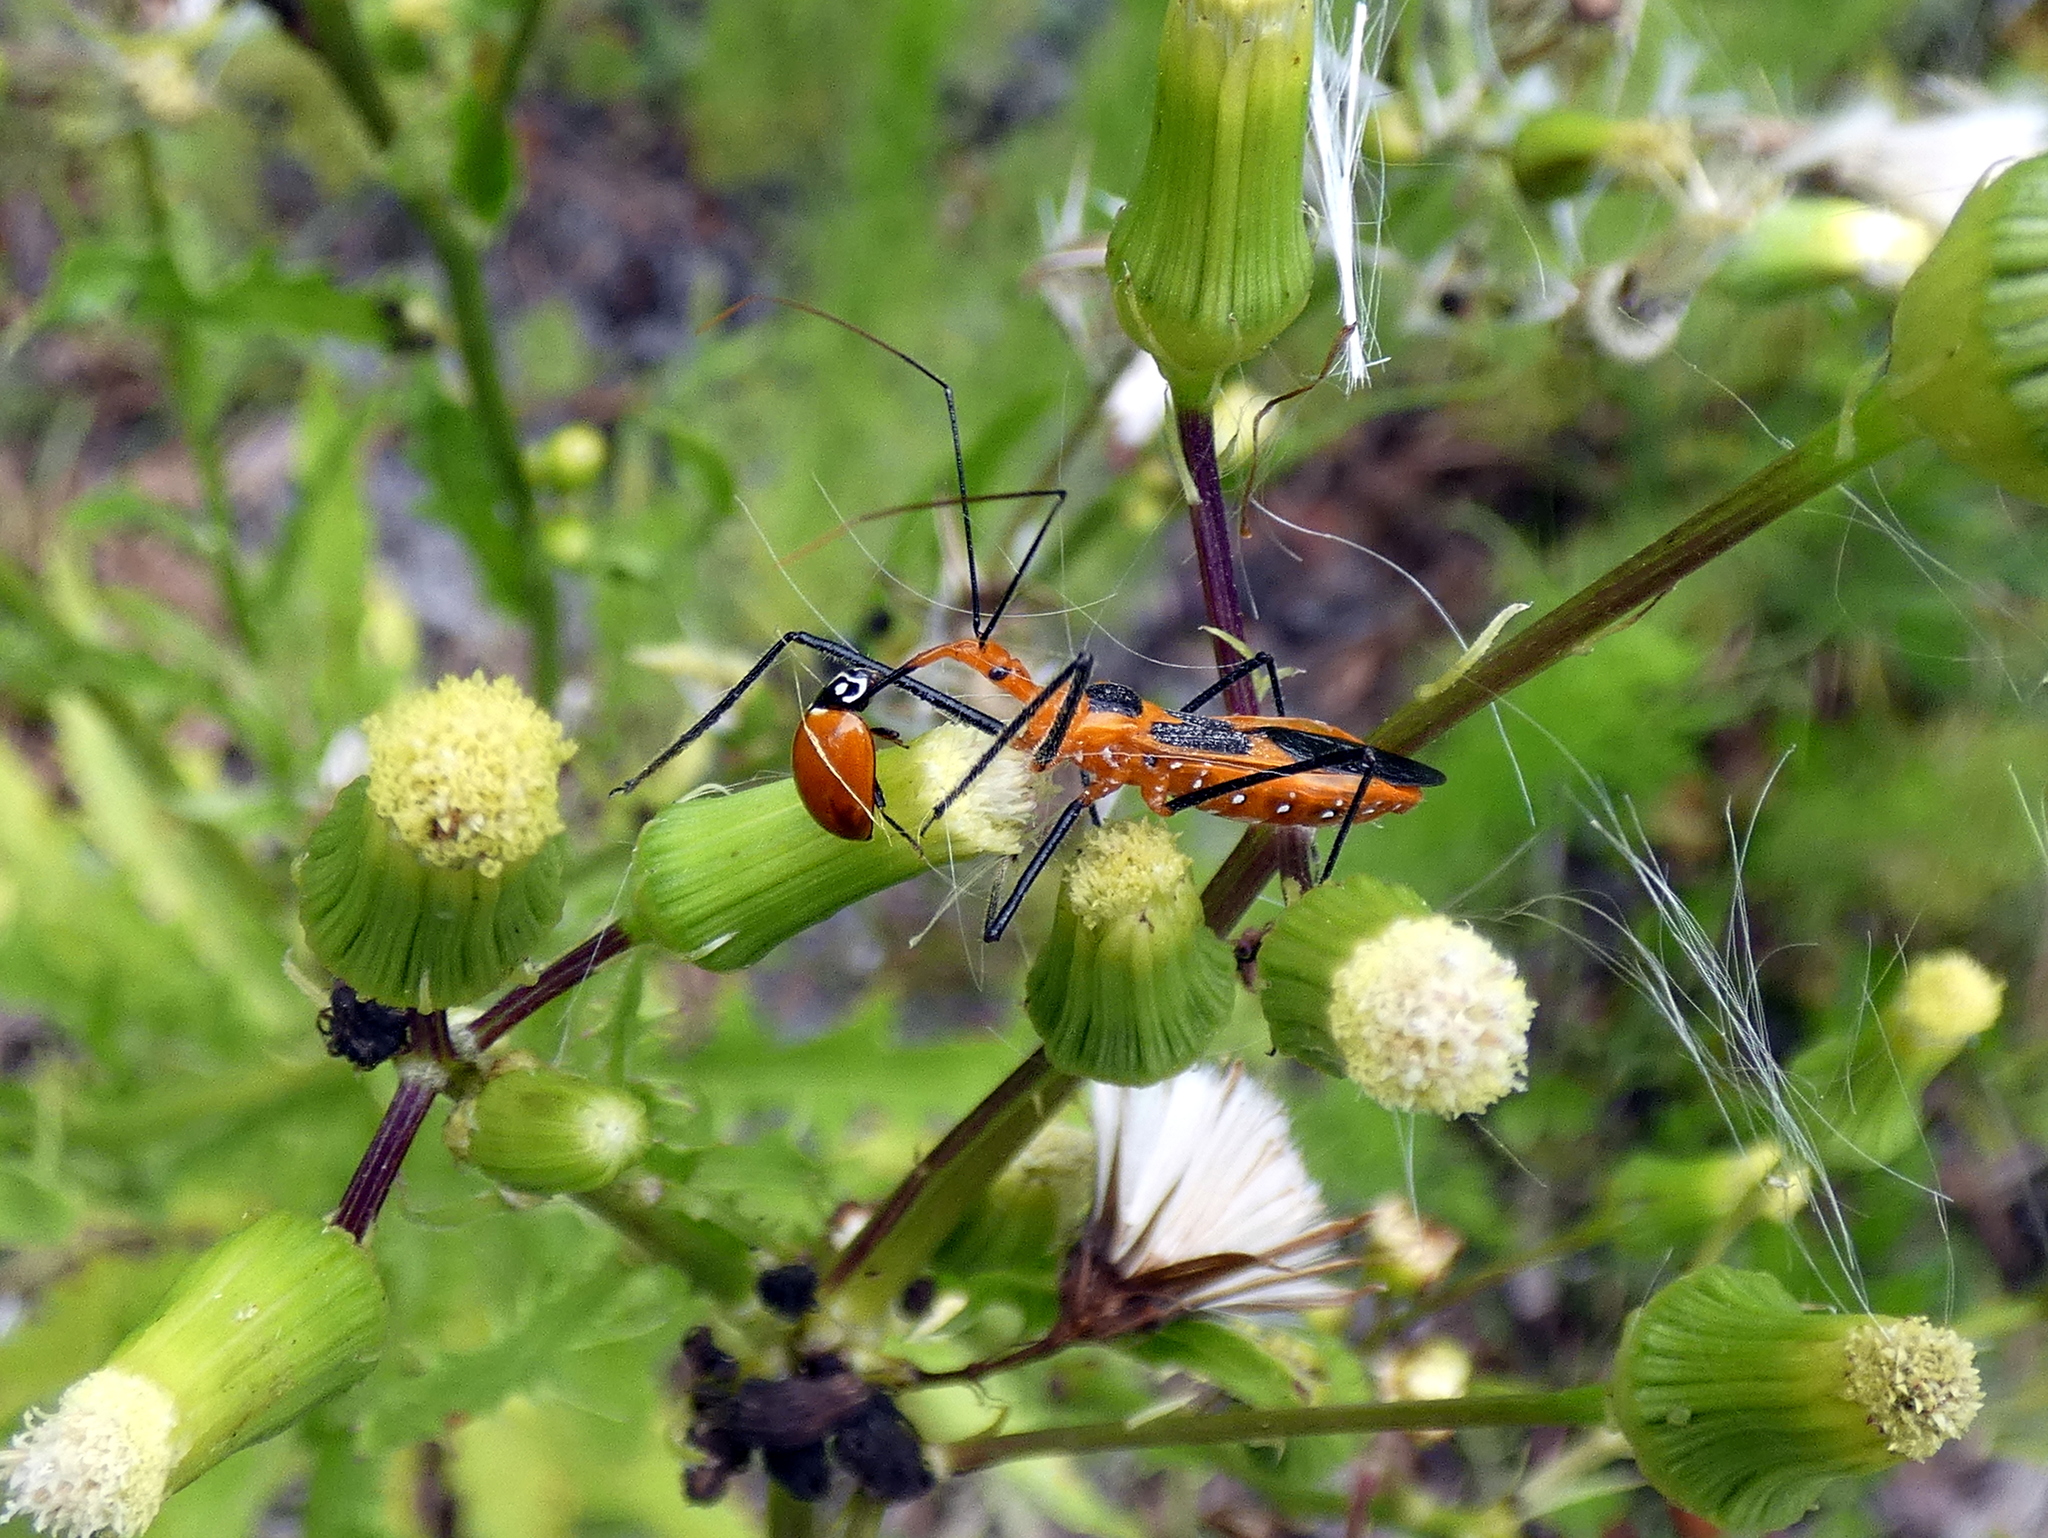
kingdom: Animalia
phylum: Arthropoda
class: Insecta
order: Hemiptera
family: Reduviidae
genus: Zelus
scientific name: Zelus longipes
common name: Milkweed assassin bug
